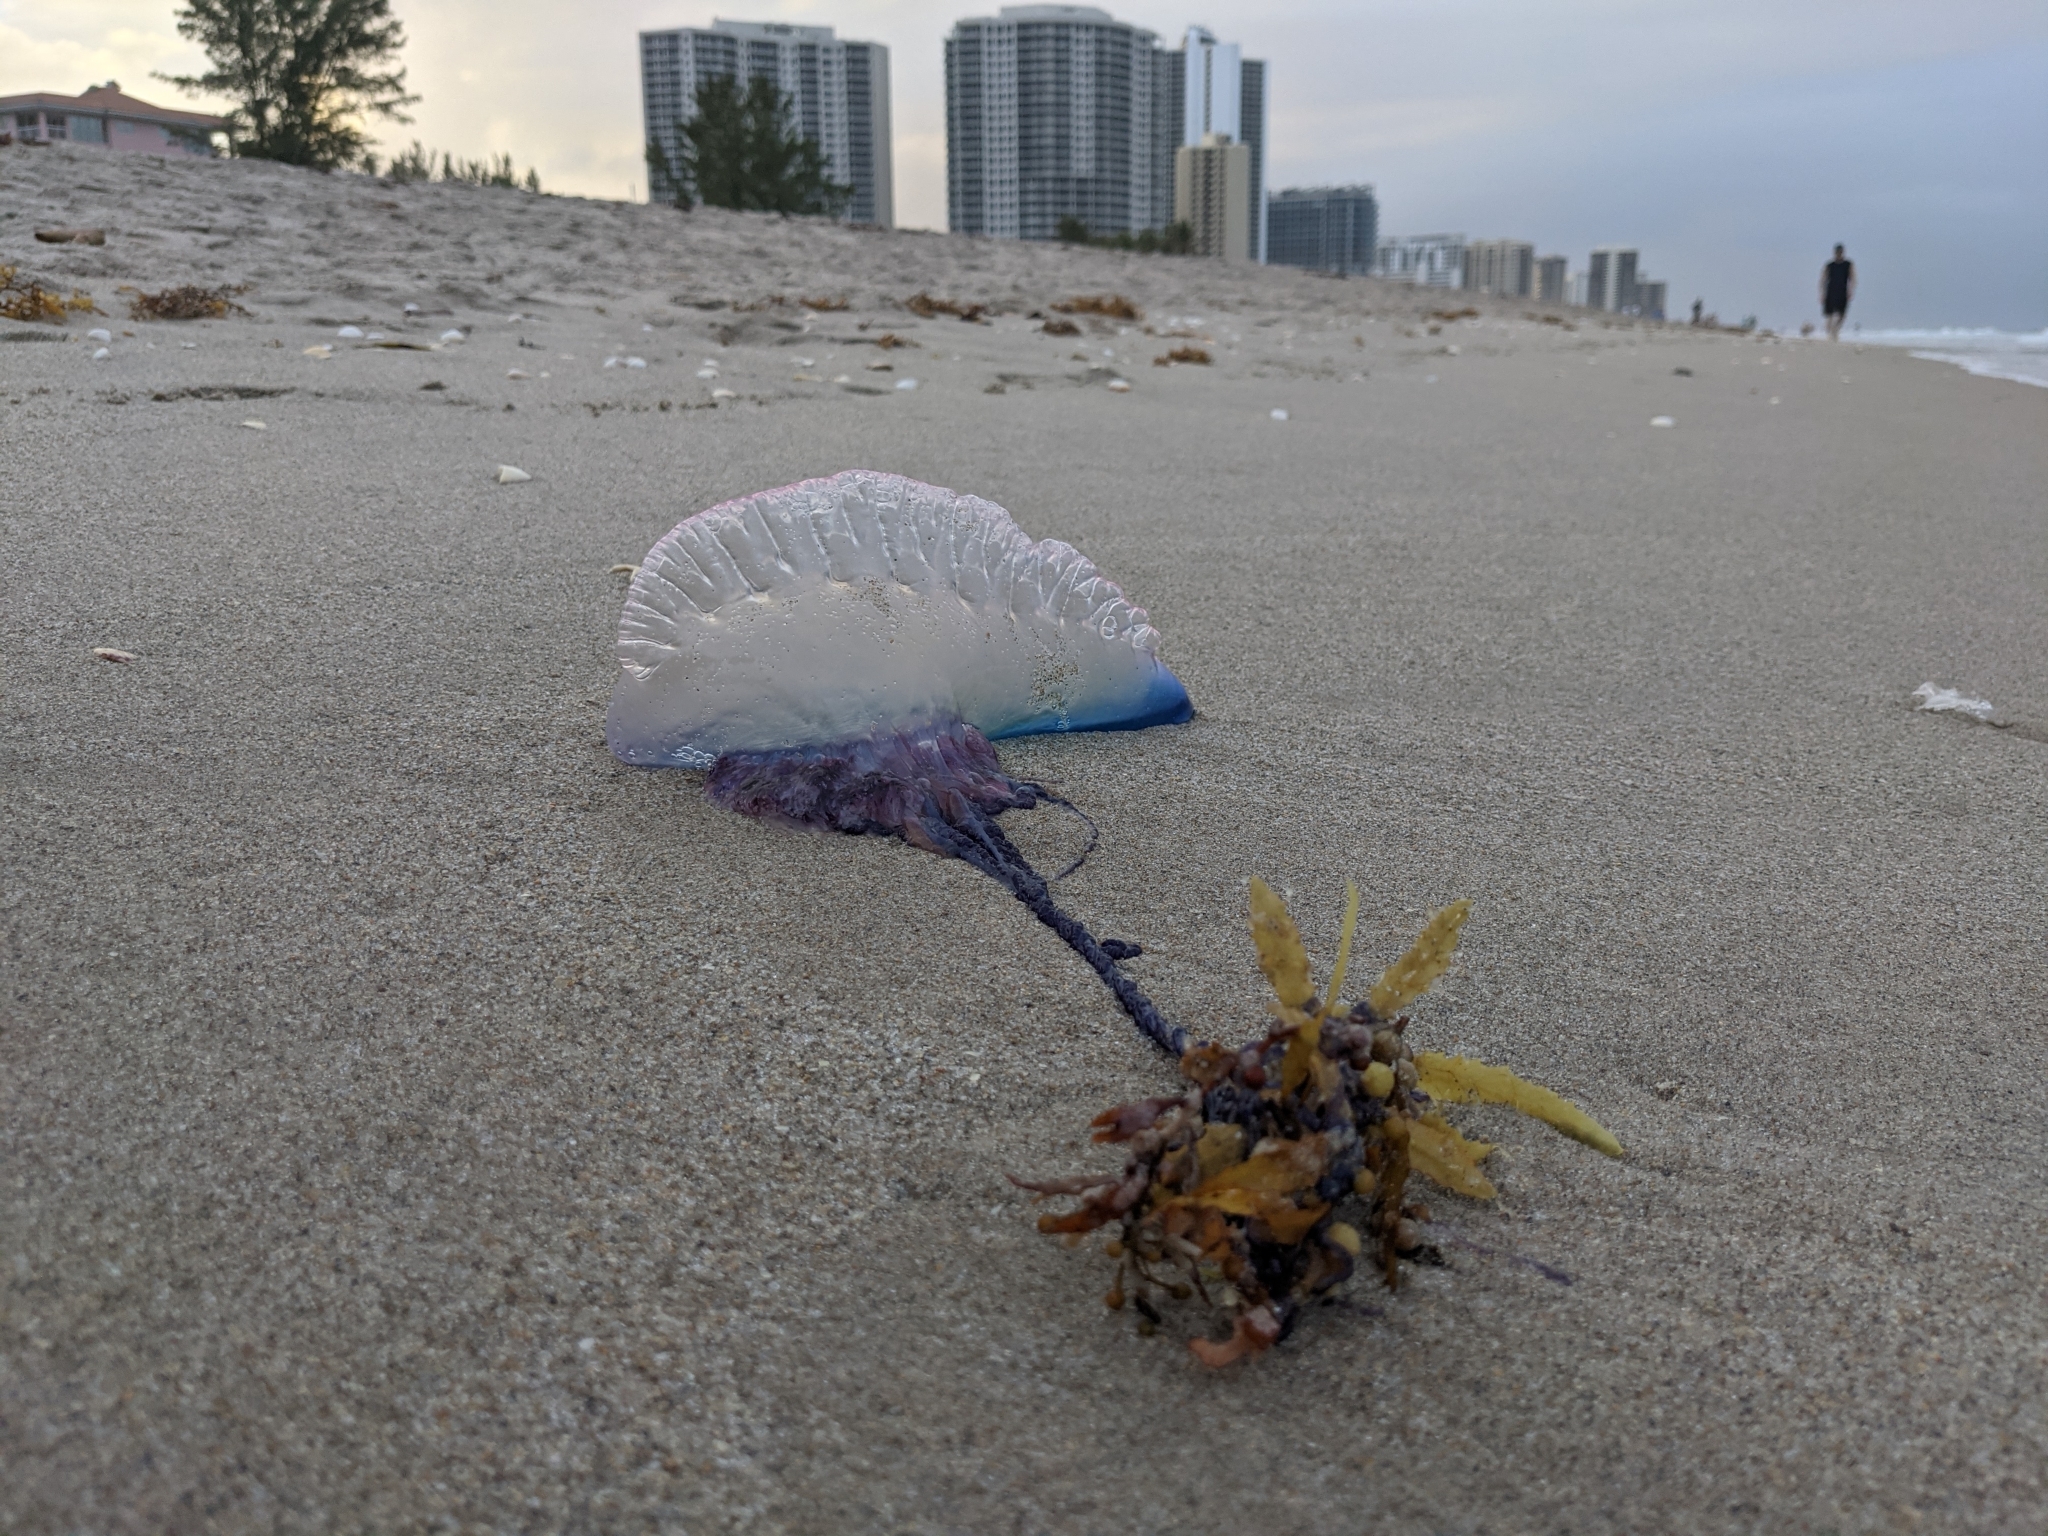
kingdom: Animalia
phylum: Cnidaria
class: Hydrozoa
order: Siphonophorae
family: Physaliidae
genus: Physalia
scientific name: Physalia physalis
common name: Portuguese man-of-war
